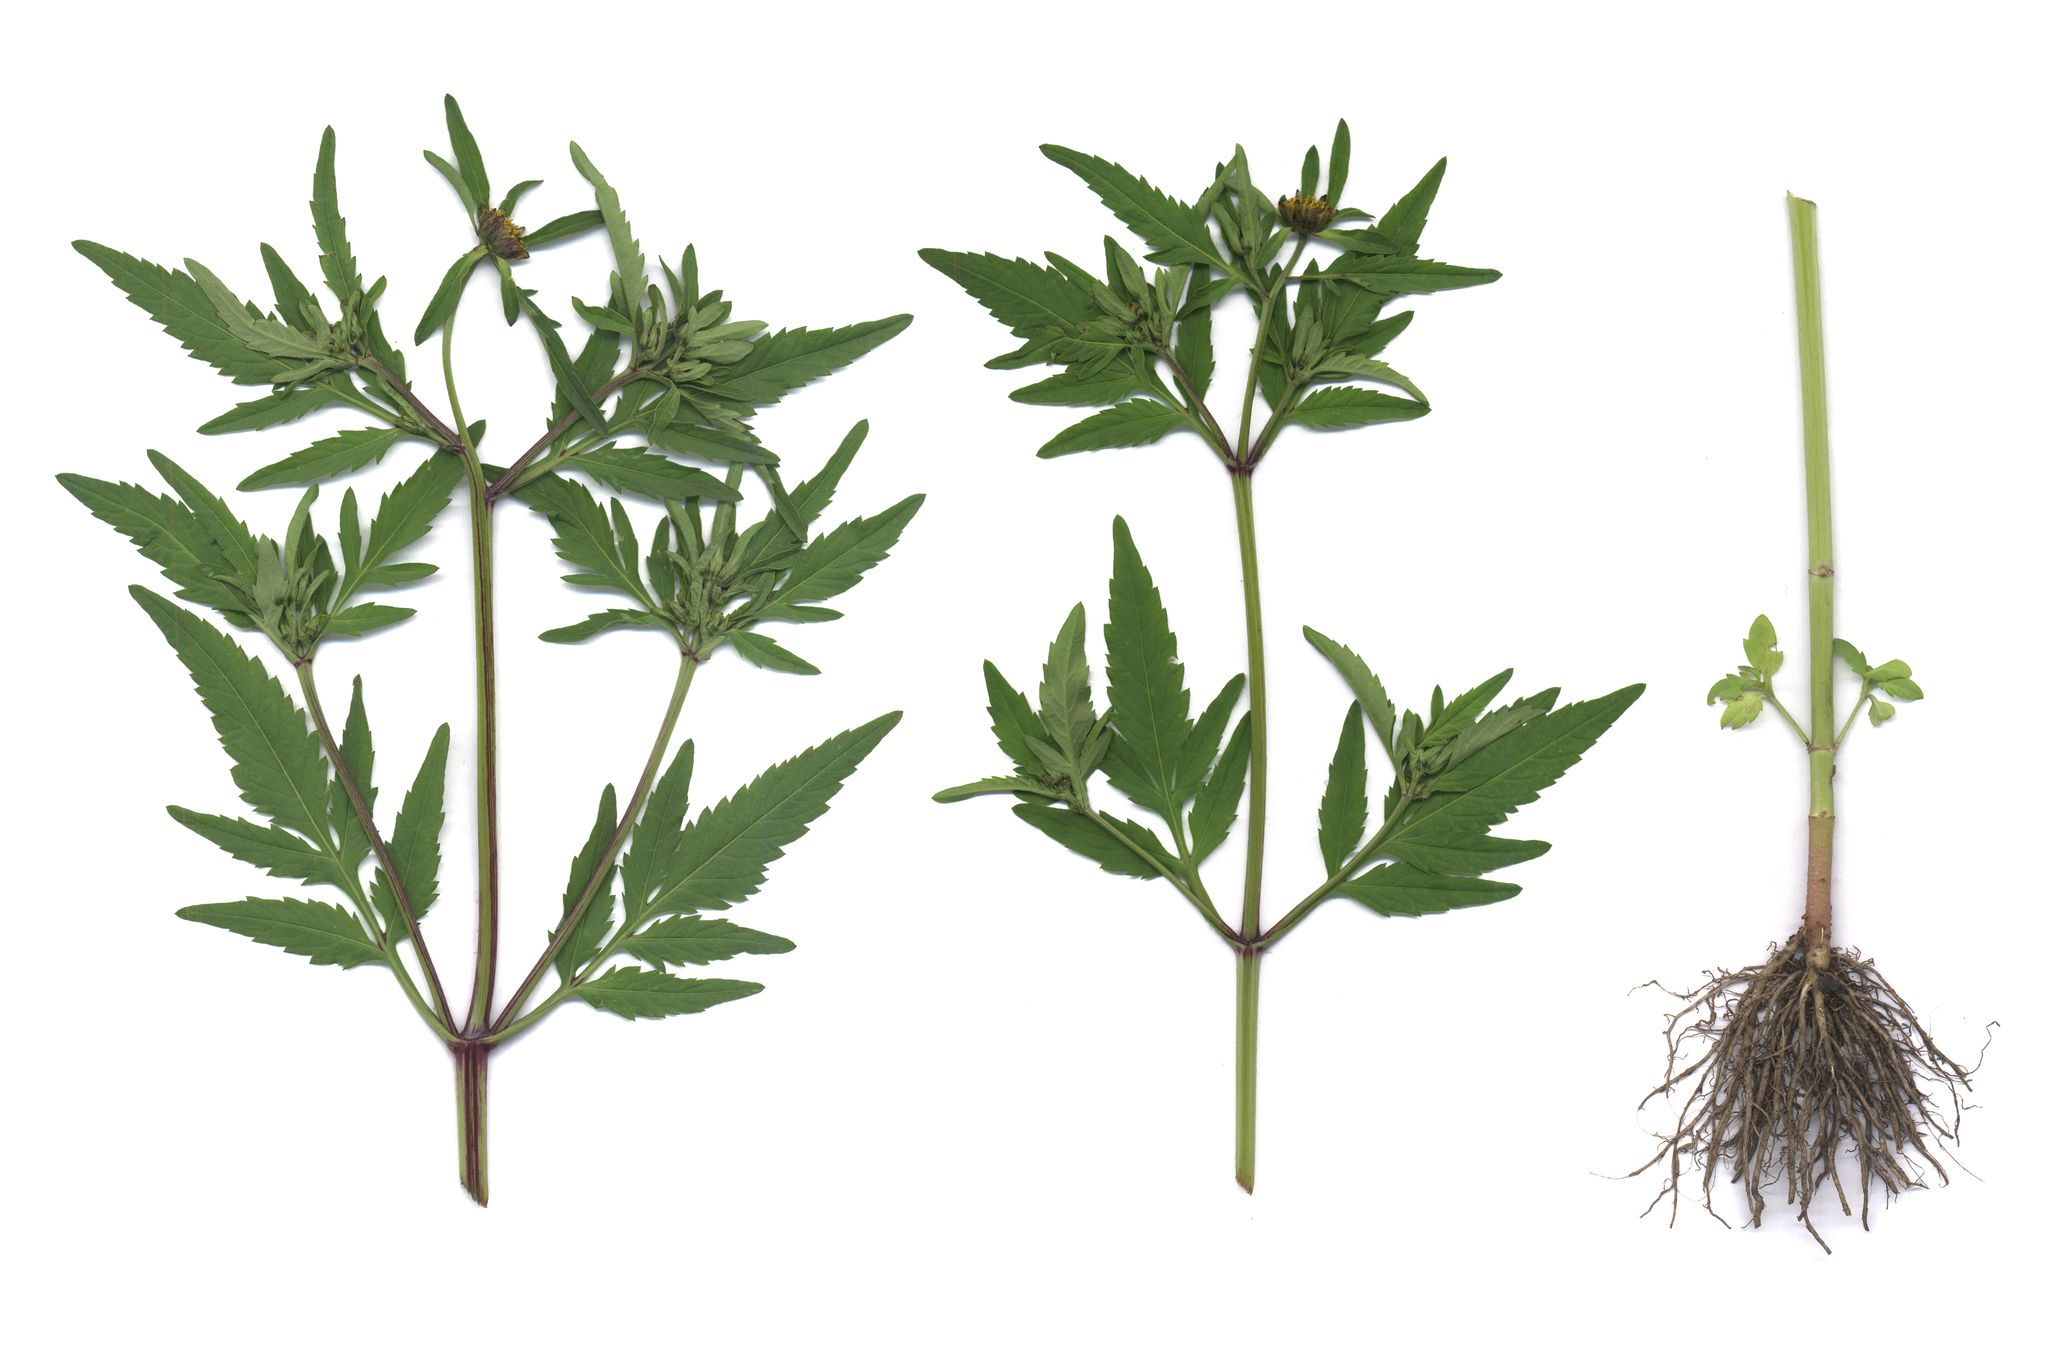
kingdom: Plantae
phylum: Tracheophyta
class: Magnoliopsida
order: Asterales
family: Asteraceae
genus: Bidens
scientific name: Bidens tripartita
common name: Trifid bur-marigold
